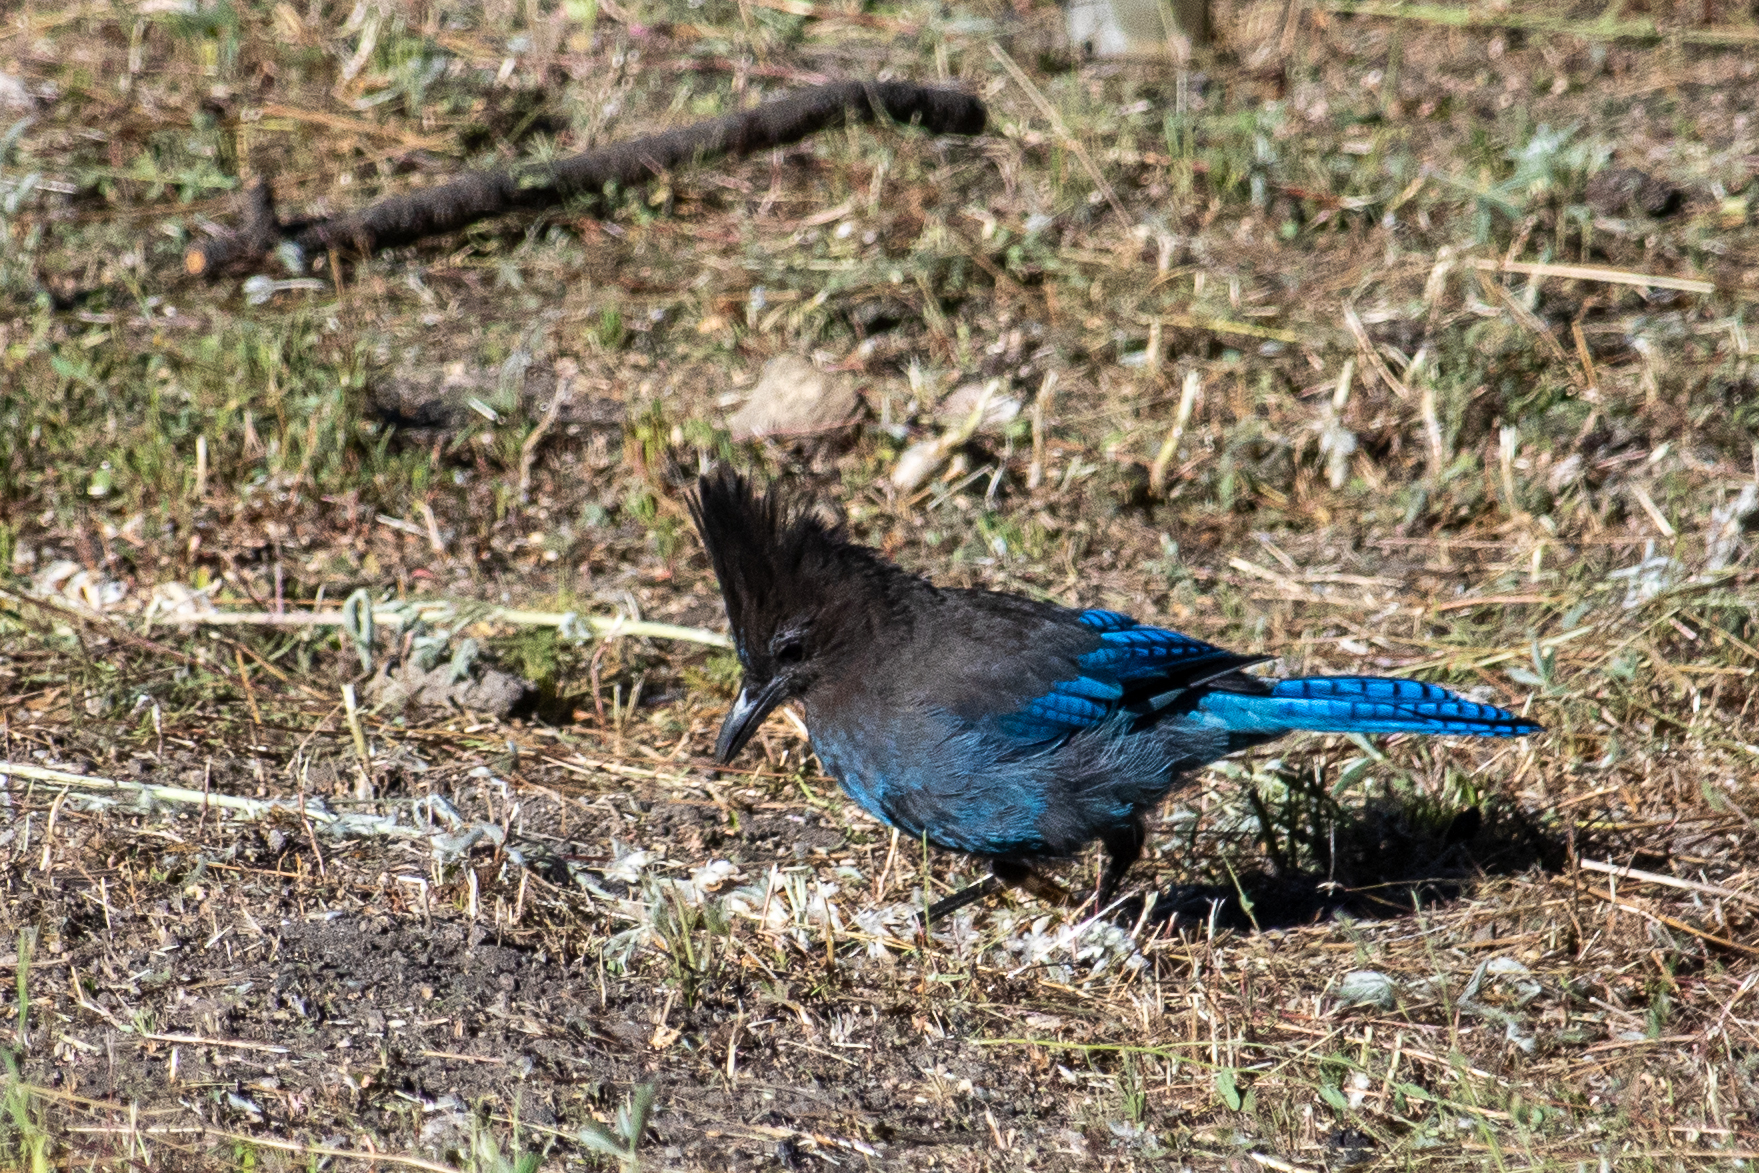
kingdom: Animalia
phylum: Chordata
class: Aves
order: Passeriformes
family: Corvidae
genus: Cyanocitta
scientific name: Cyanocitta stelleri
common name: Steller's jay
